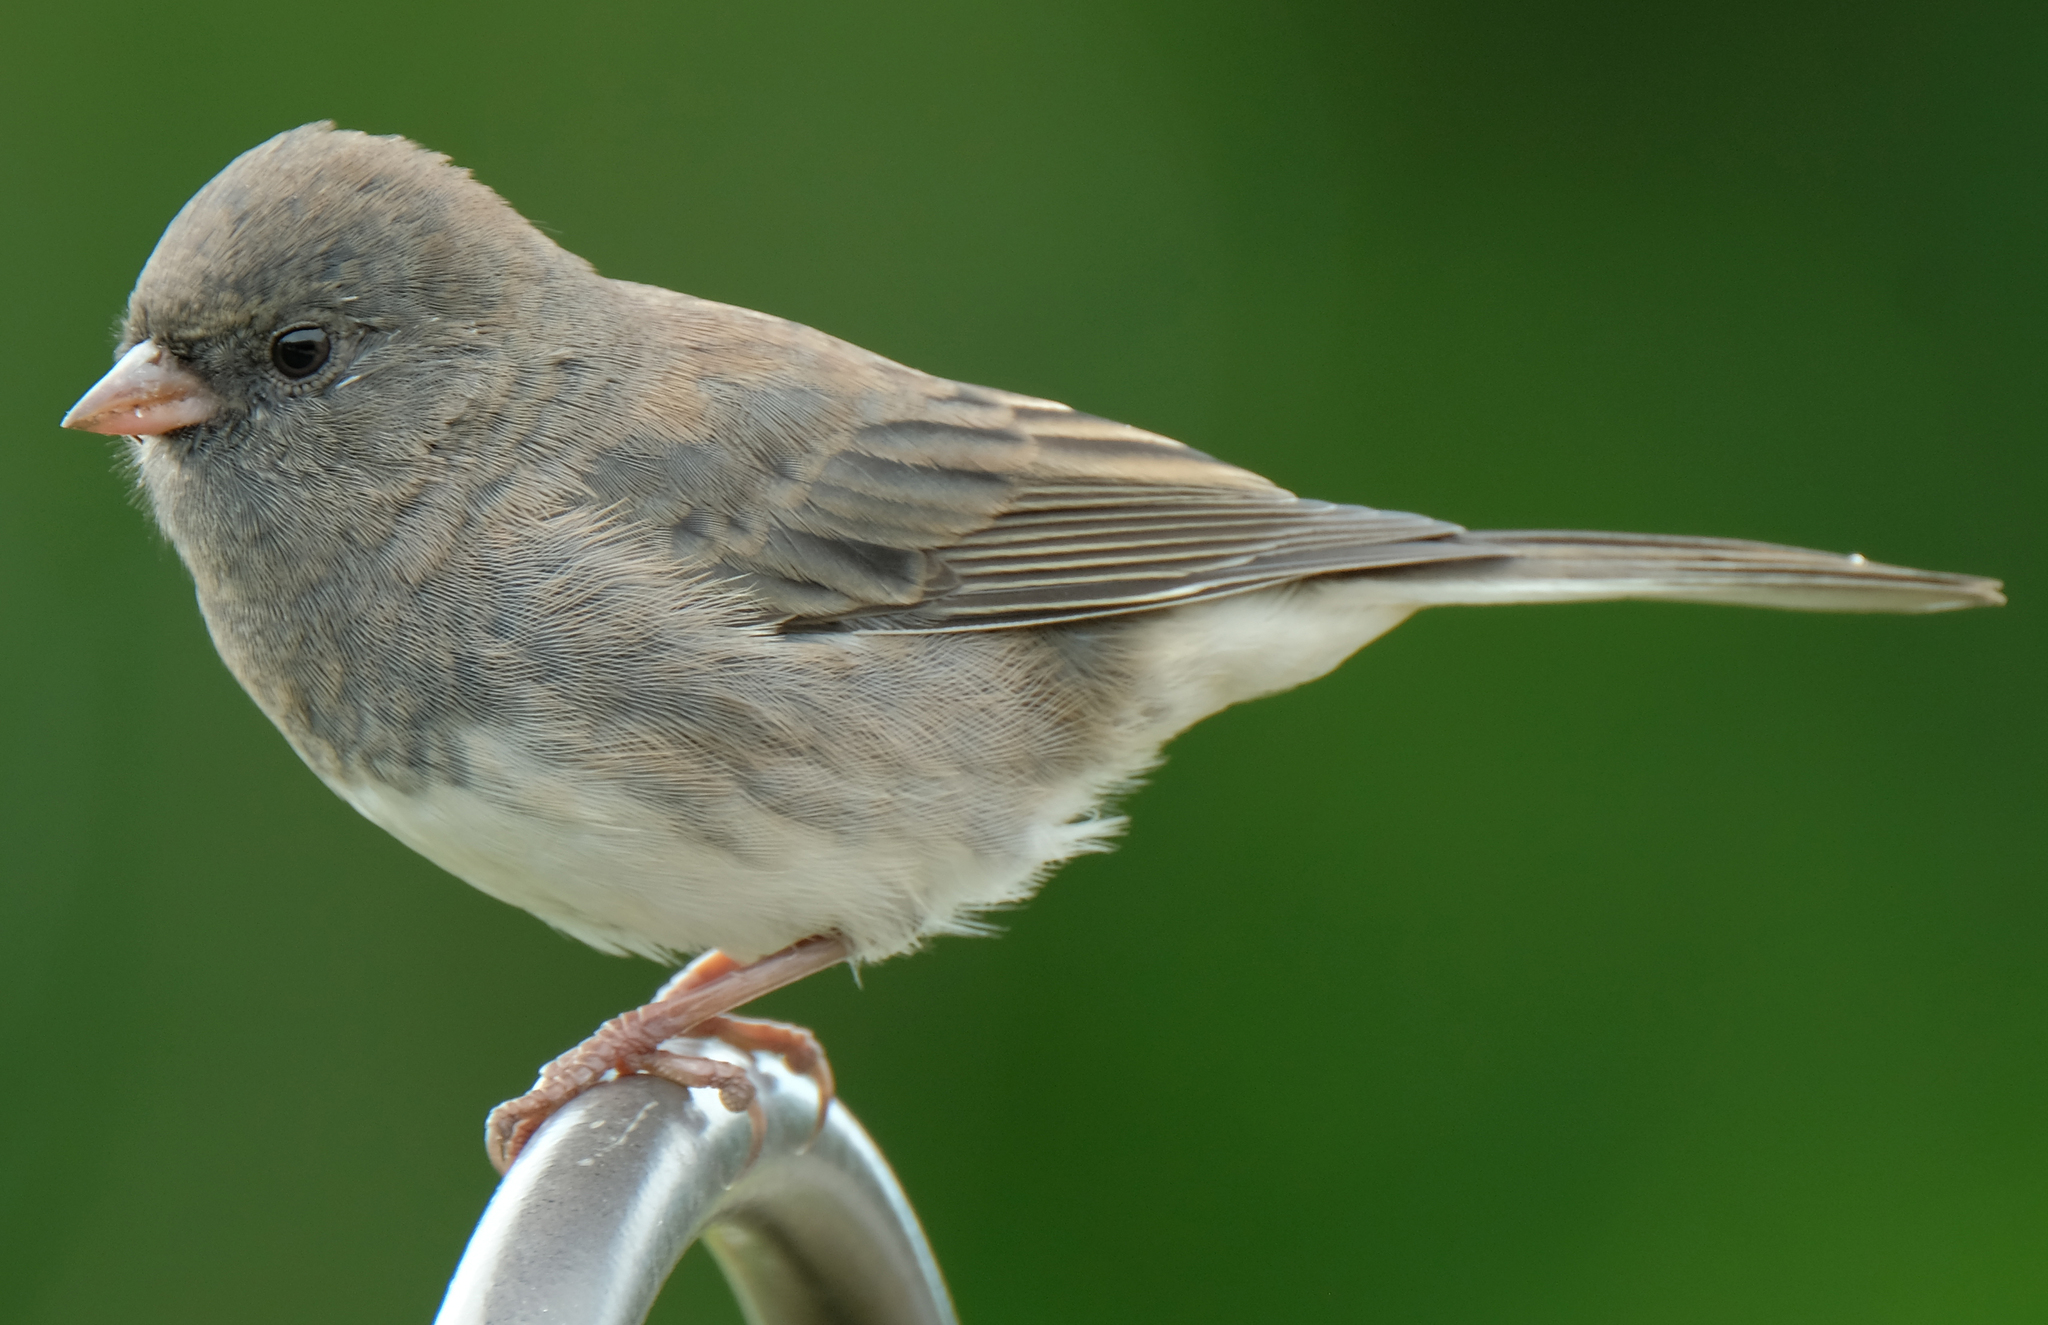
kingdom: Animalia
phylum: Chordata
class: Aves
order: Passeriformes
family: Passerellidae
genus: Junco
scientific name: Junco hyemalis
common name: Dark-eyed junco
